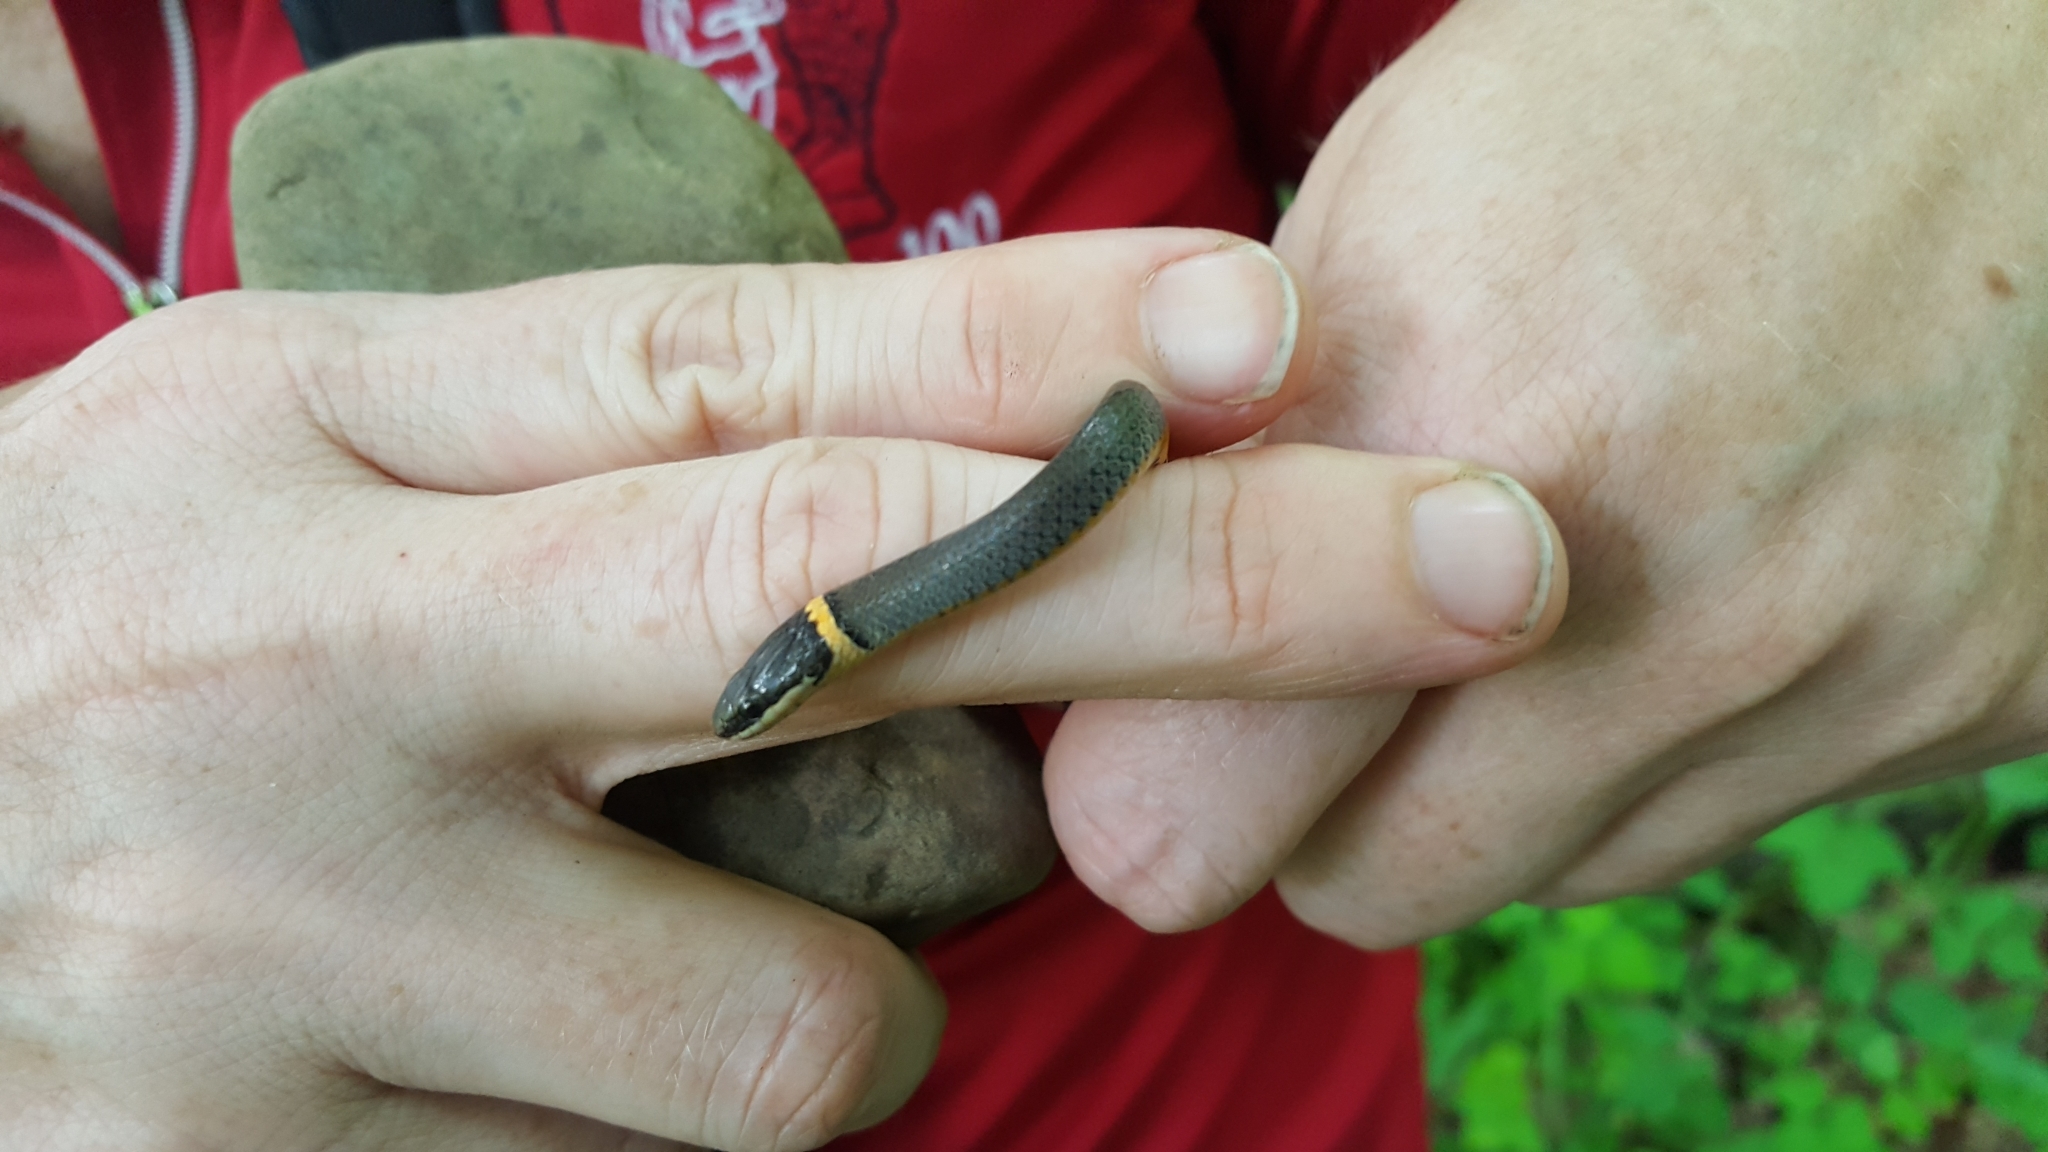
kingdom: Animalia
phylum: Chordata
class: Squamata
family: Colubridae
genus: Diadophis
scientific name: Diadophis punctatus
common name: Ringneck snake
